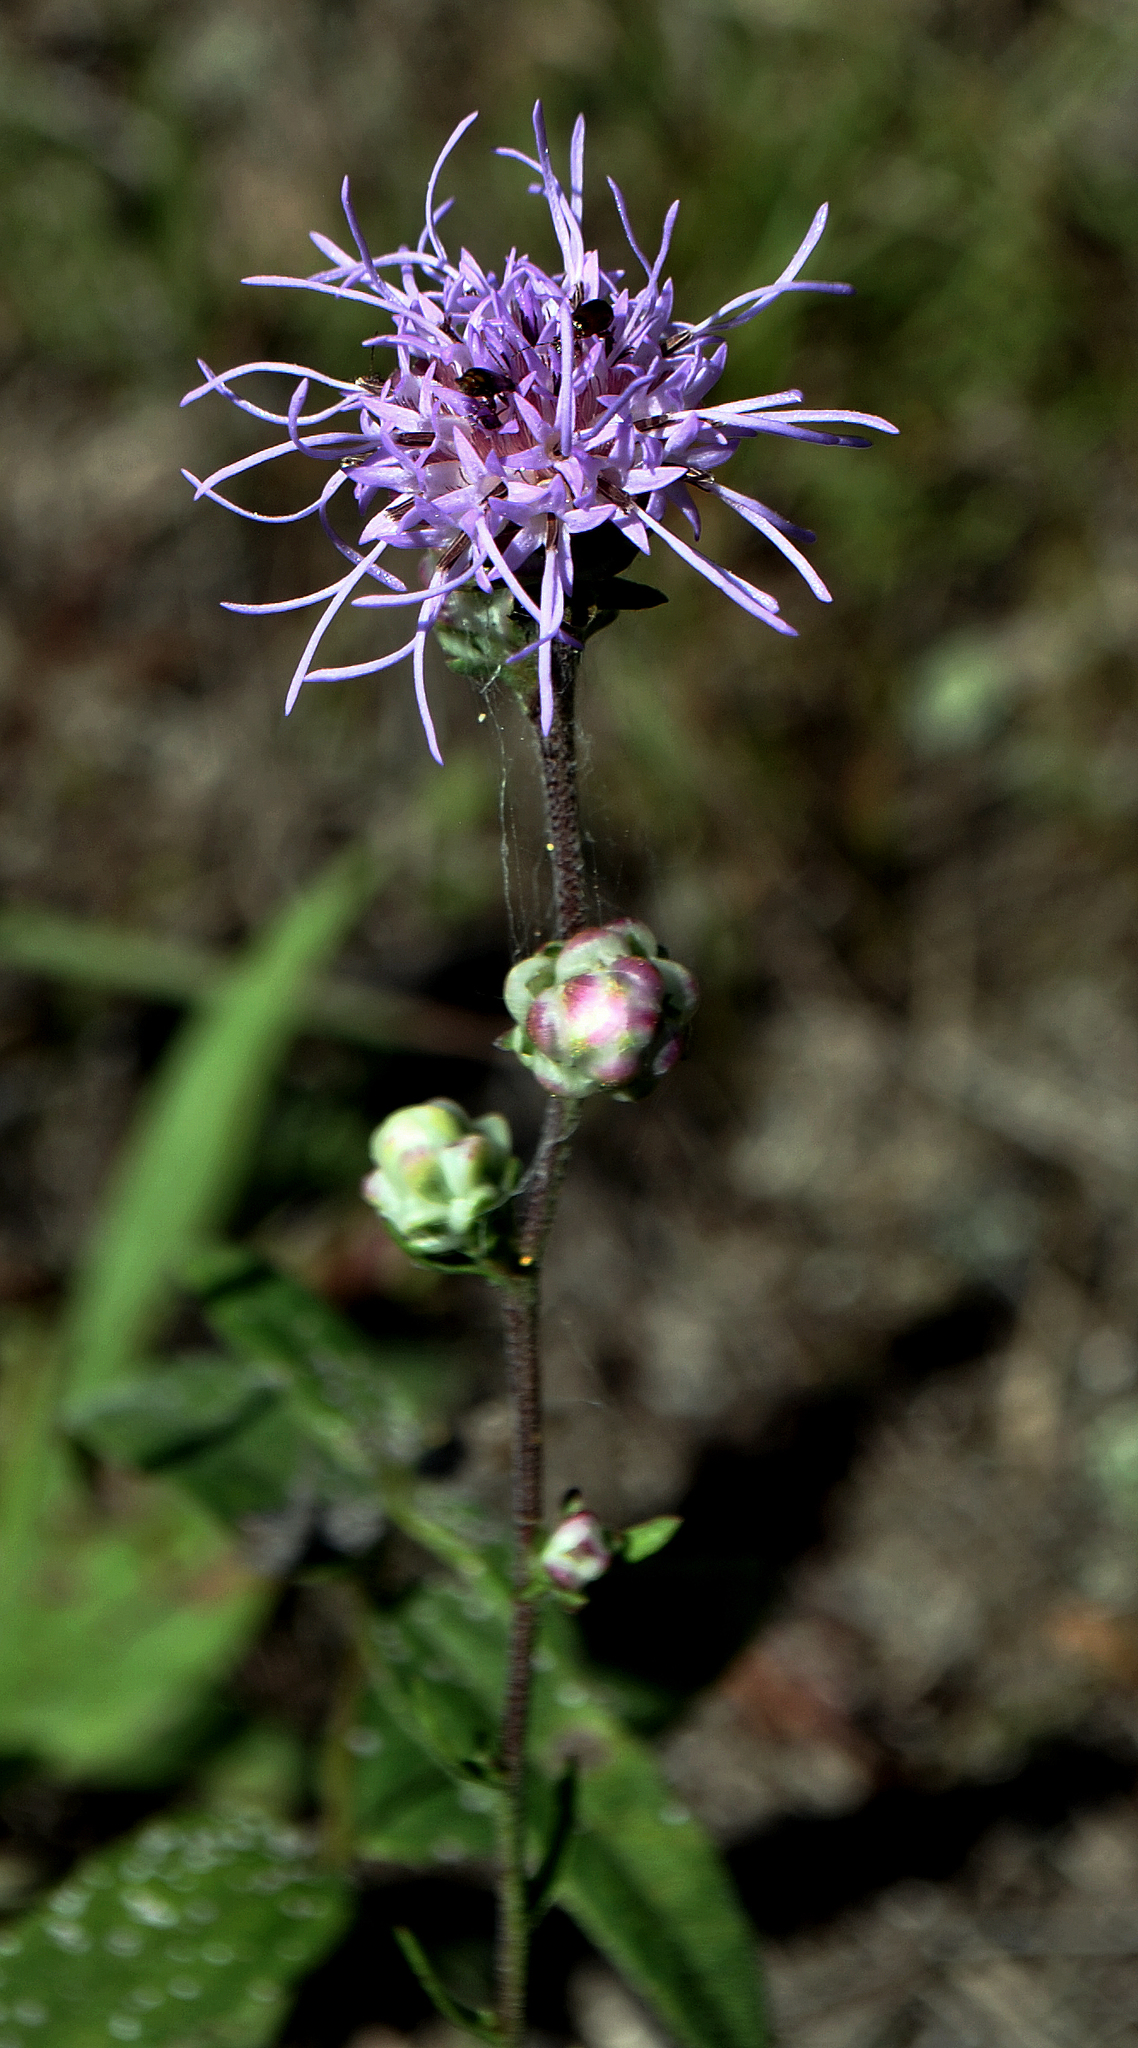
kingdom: Plantae
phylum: Tracheophyta
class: Magnoliopsida
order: Asterales
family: Asteraceae
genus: Liatris
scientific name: Liatris aspera
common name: Lacerate blazing-star
